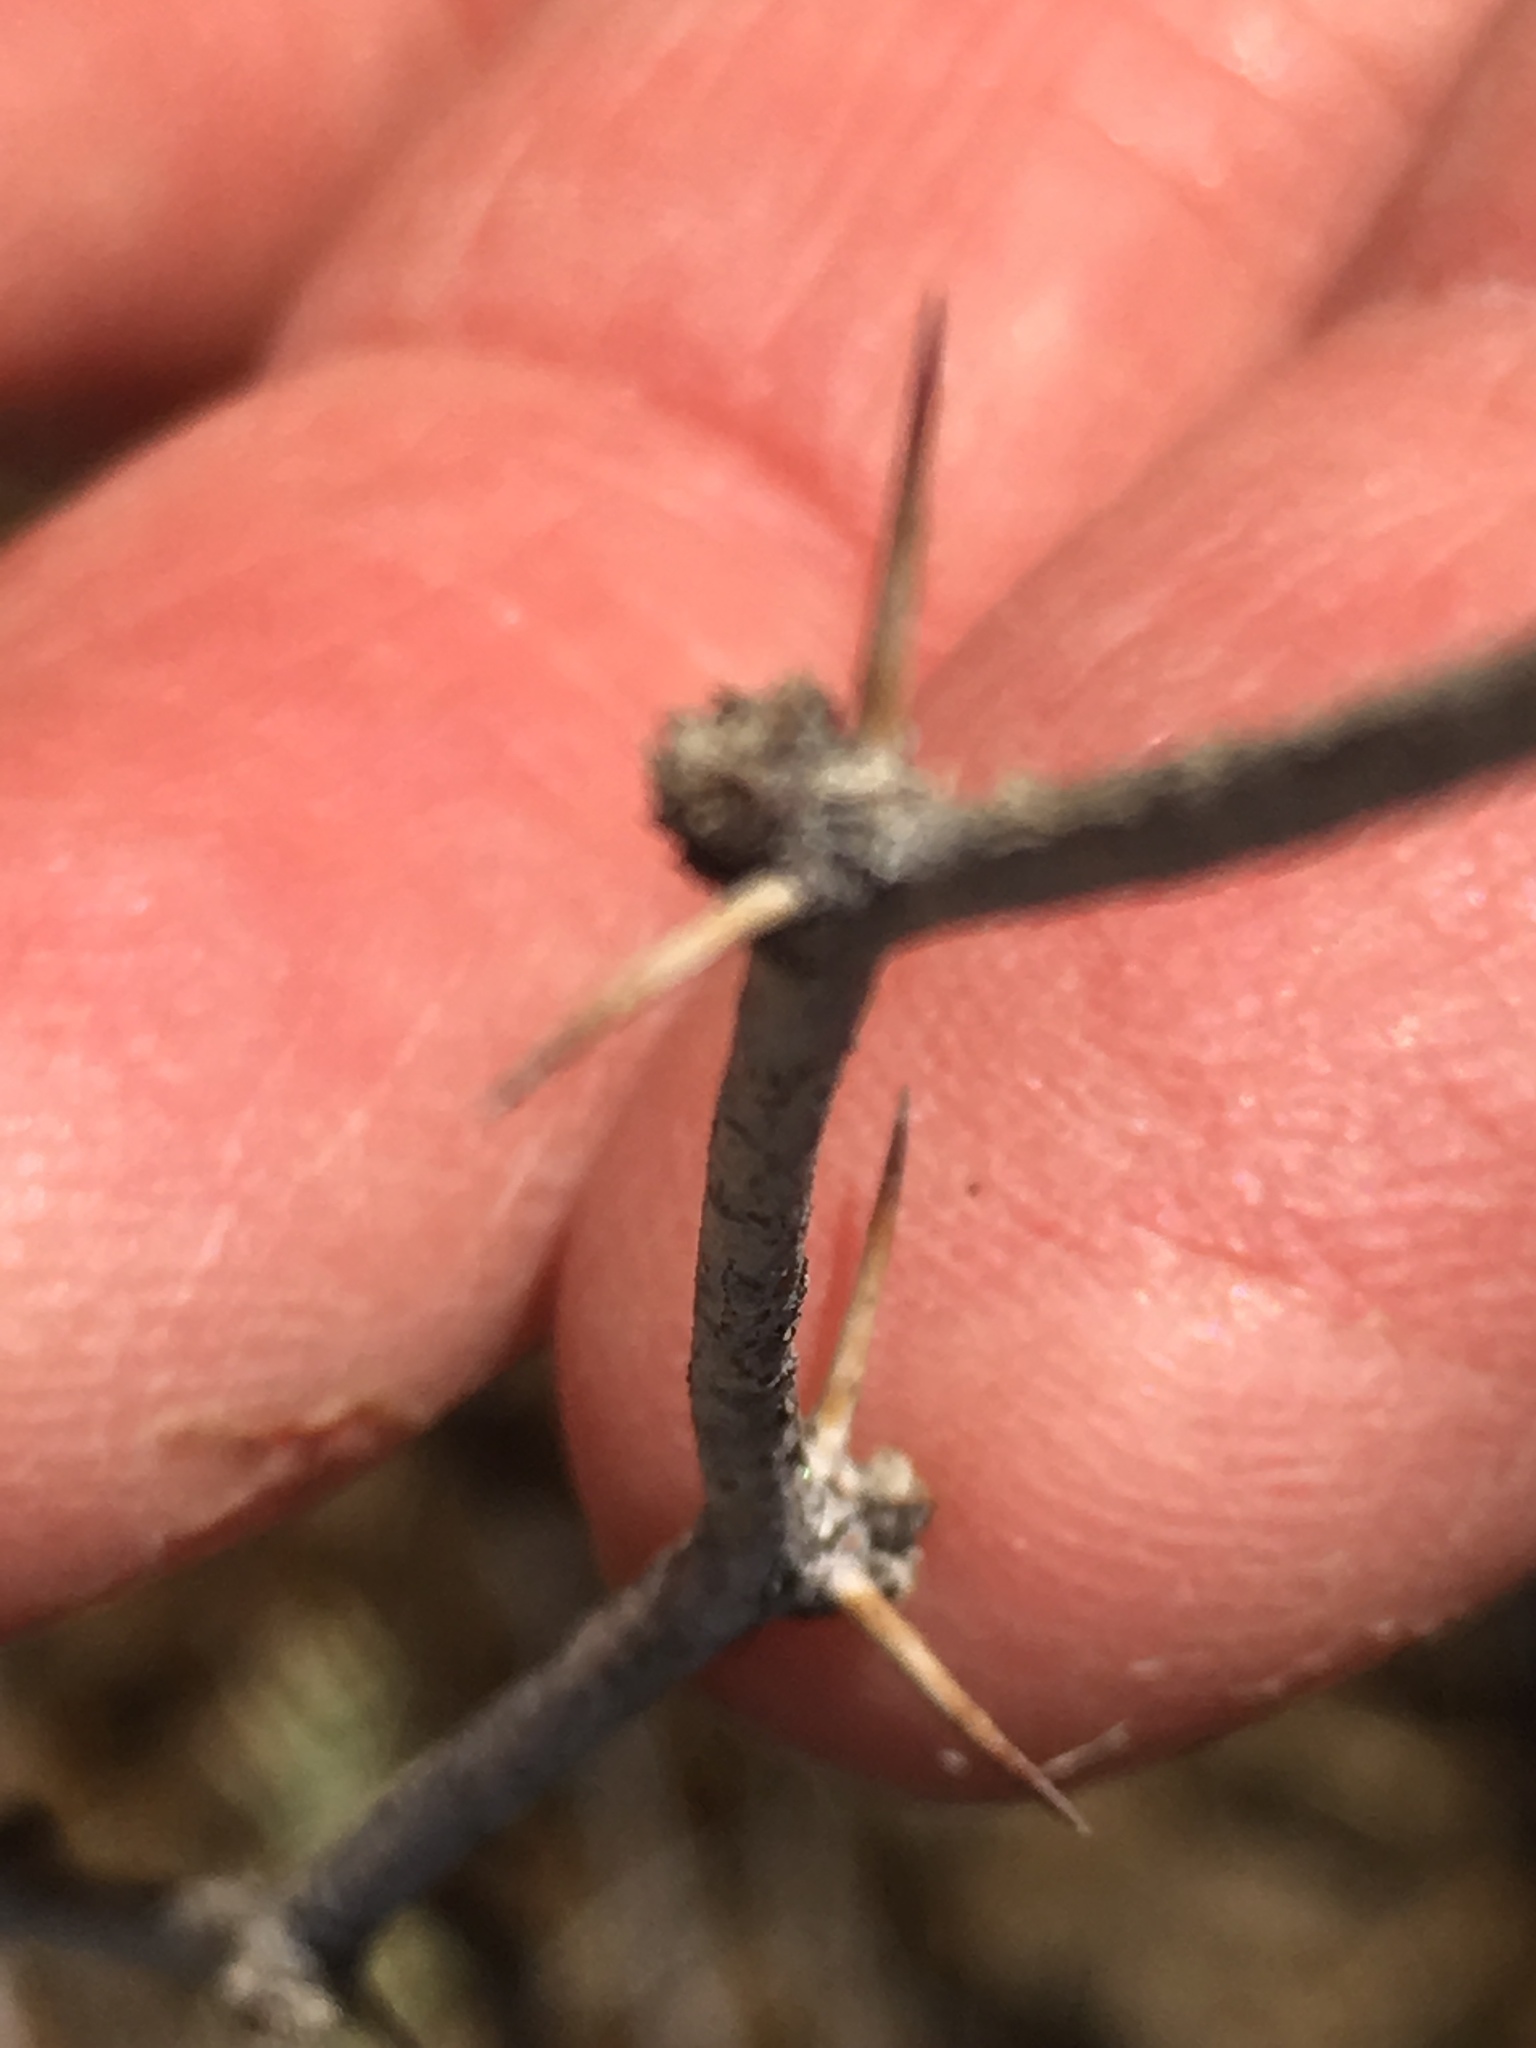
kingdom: Plantae
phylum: Tracheophyta
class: Magnoliopsida
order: Fabales
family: Fabaceae
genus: Prosopis
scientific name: Prosopis pubescens
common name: Screw-bean
